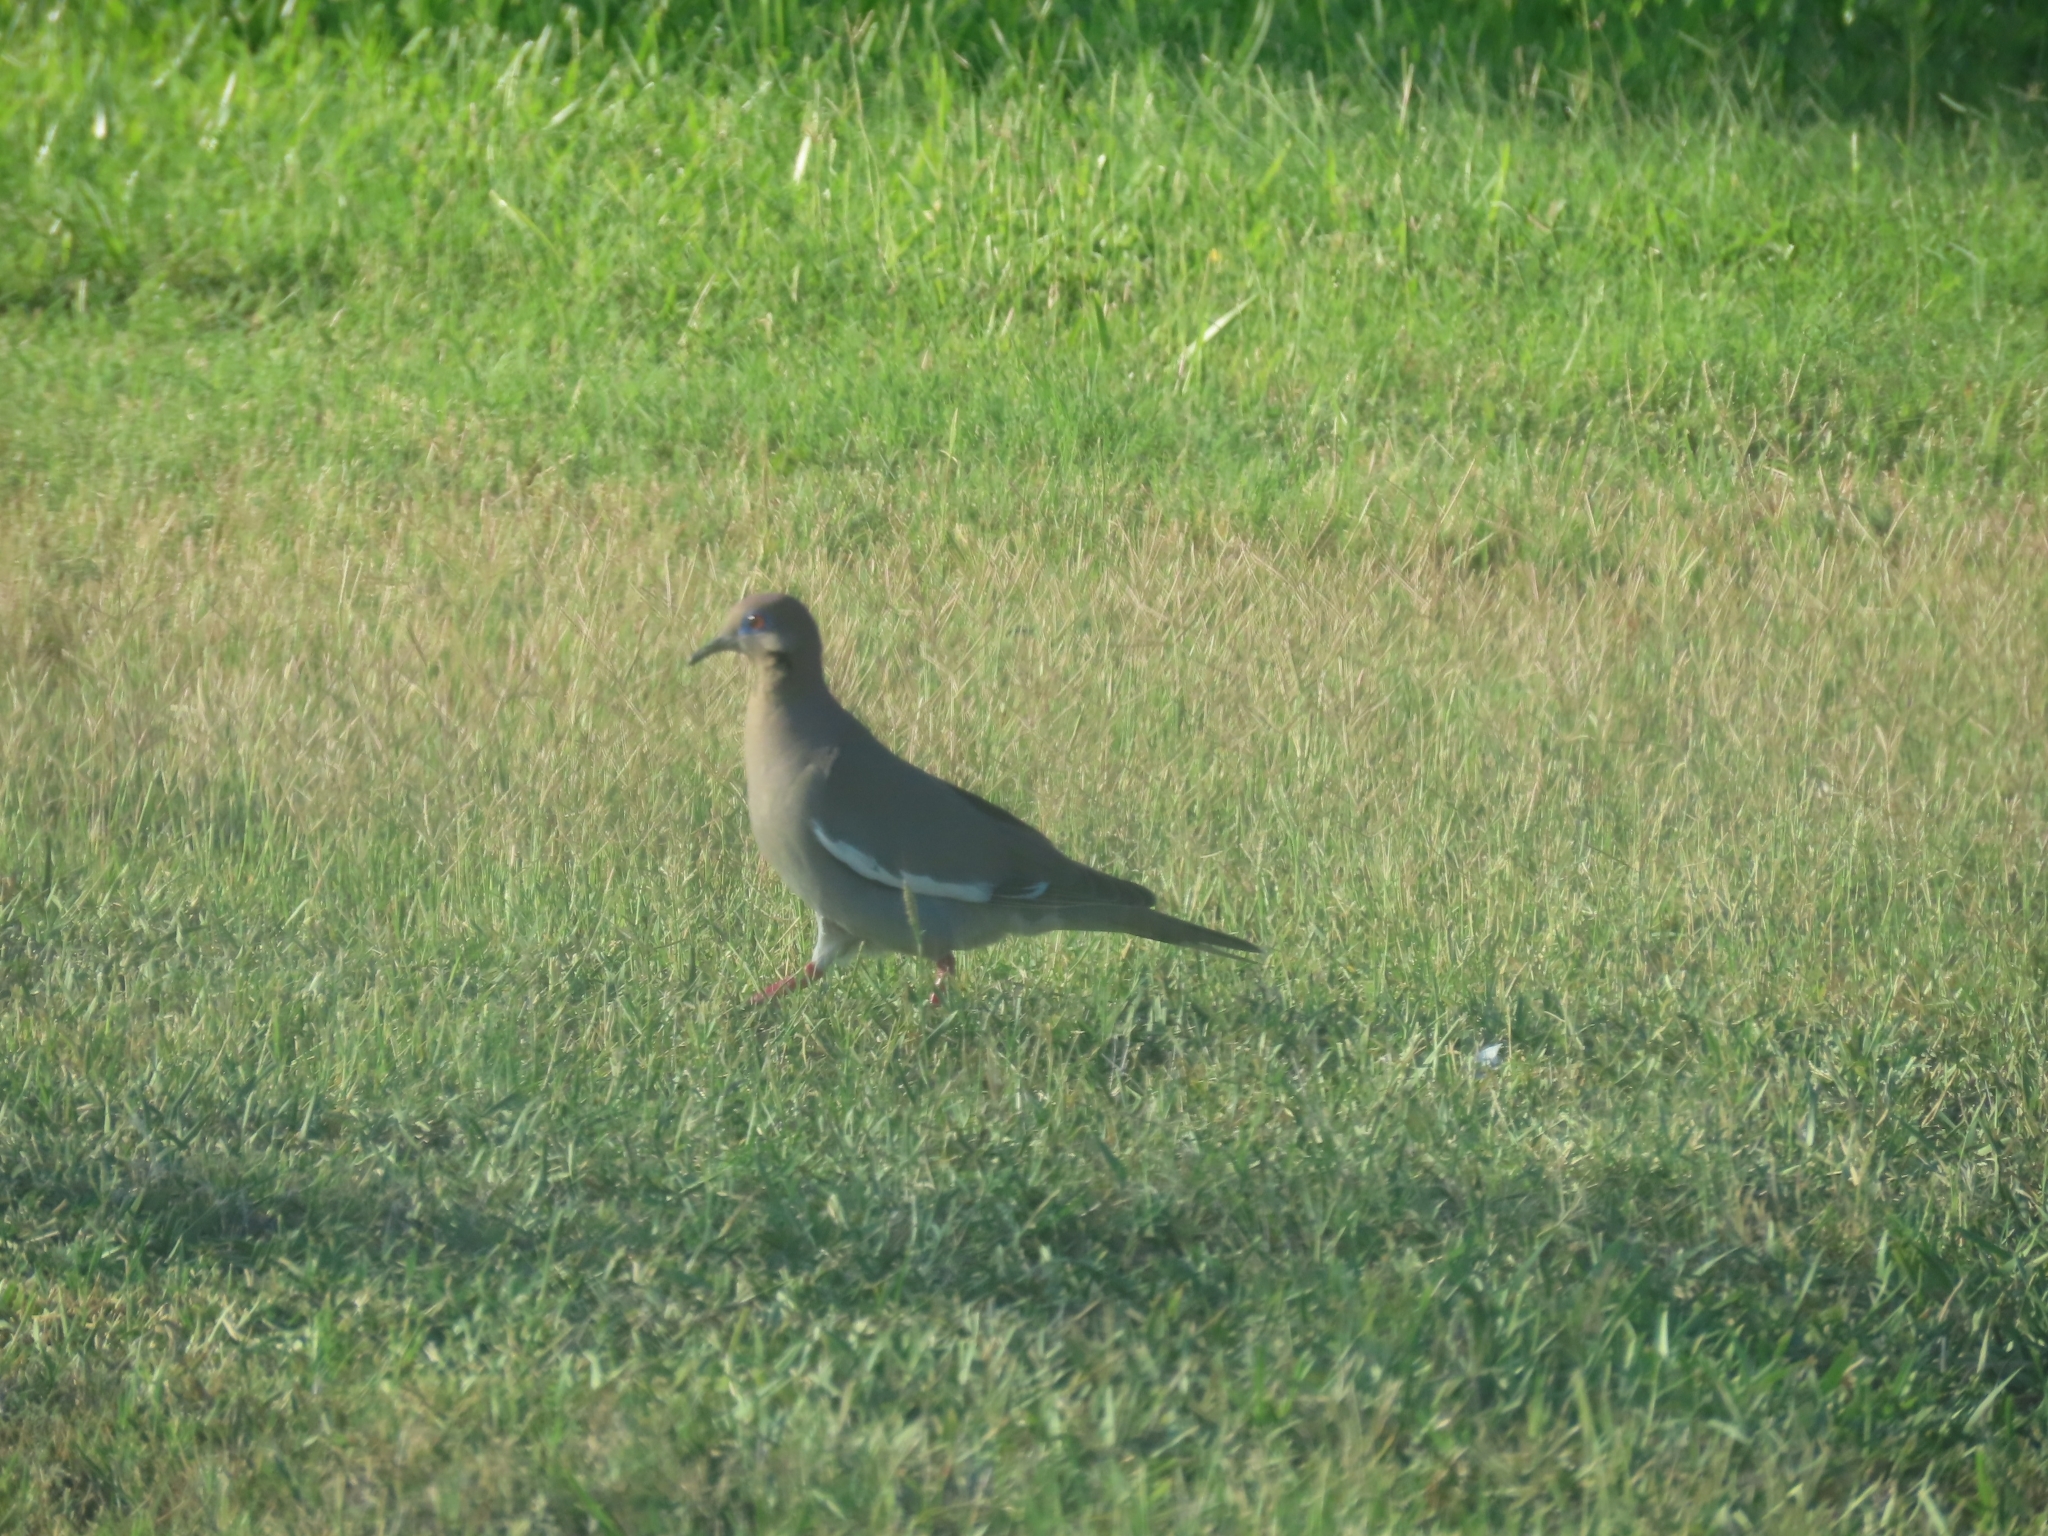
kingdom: Animalia
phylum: Chordata
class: Aves
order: Columbiformes
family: Columbidae
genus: Zenaida
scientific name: Zenaida asiatica
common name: White-winged dove
